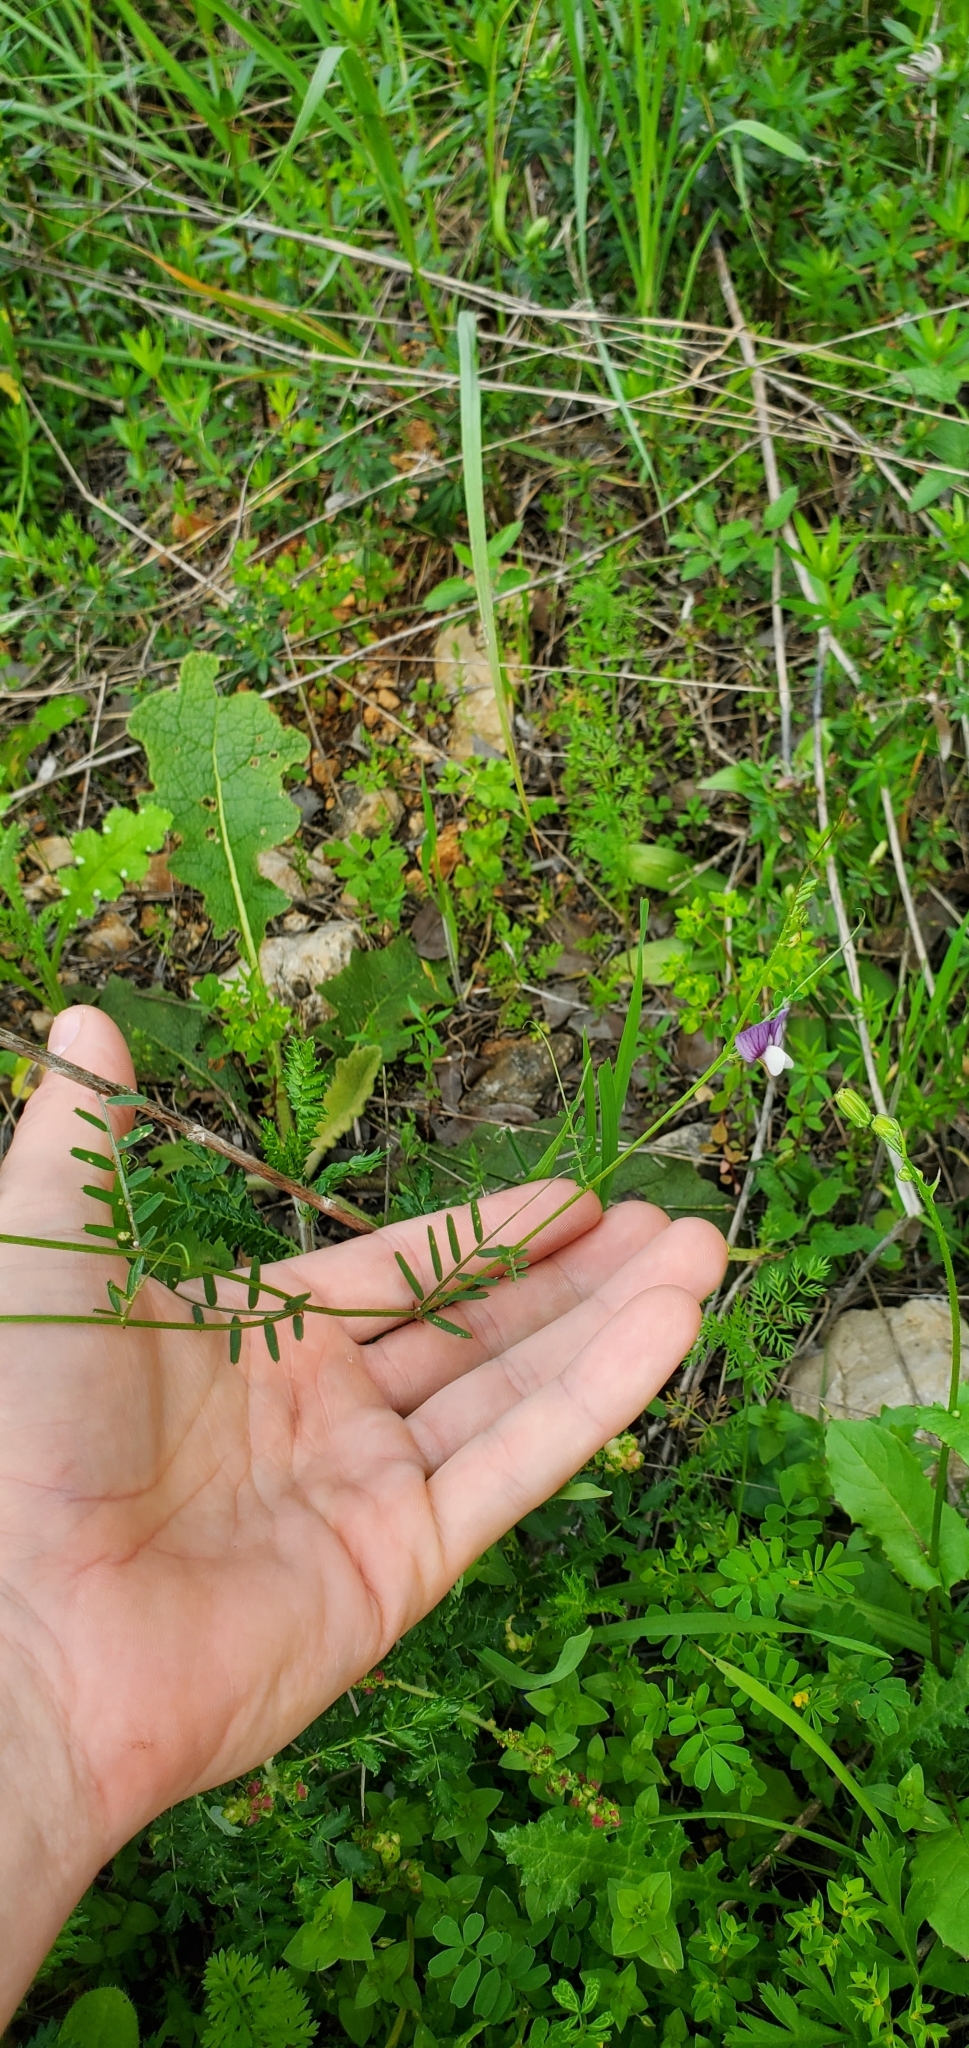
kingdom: Plantae
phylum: Tracheophyta
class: Magnoliopsida
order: Fabales
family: Fabaceae
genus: Vicia
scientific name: Vicia peregrina
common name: Broad-pod vetch
